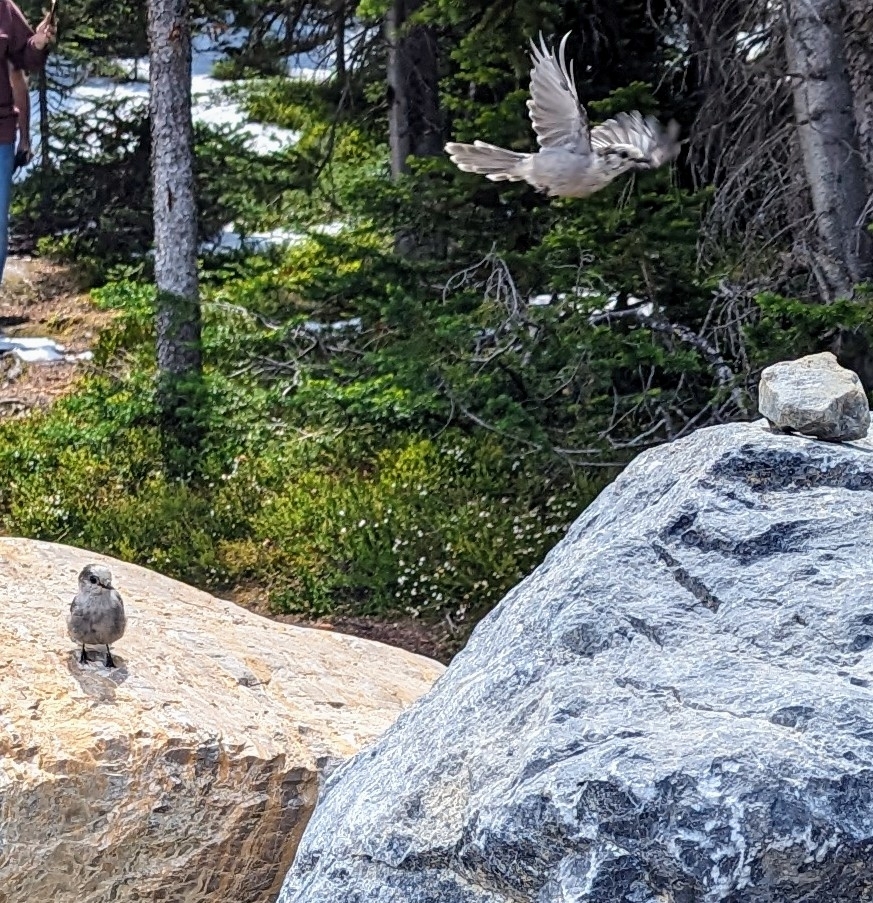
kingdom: Animalia
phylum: Chordata
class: Aves
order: Passeriformes
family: Corvidae
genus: Perisoreus
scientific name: Perisoreus canadensis
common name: Gray jay
